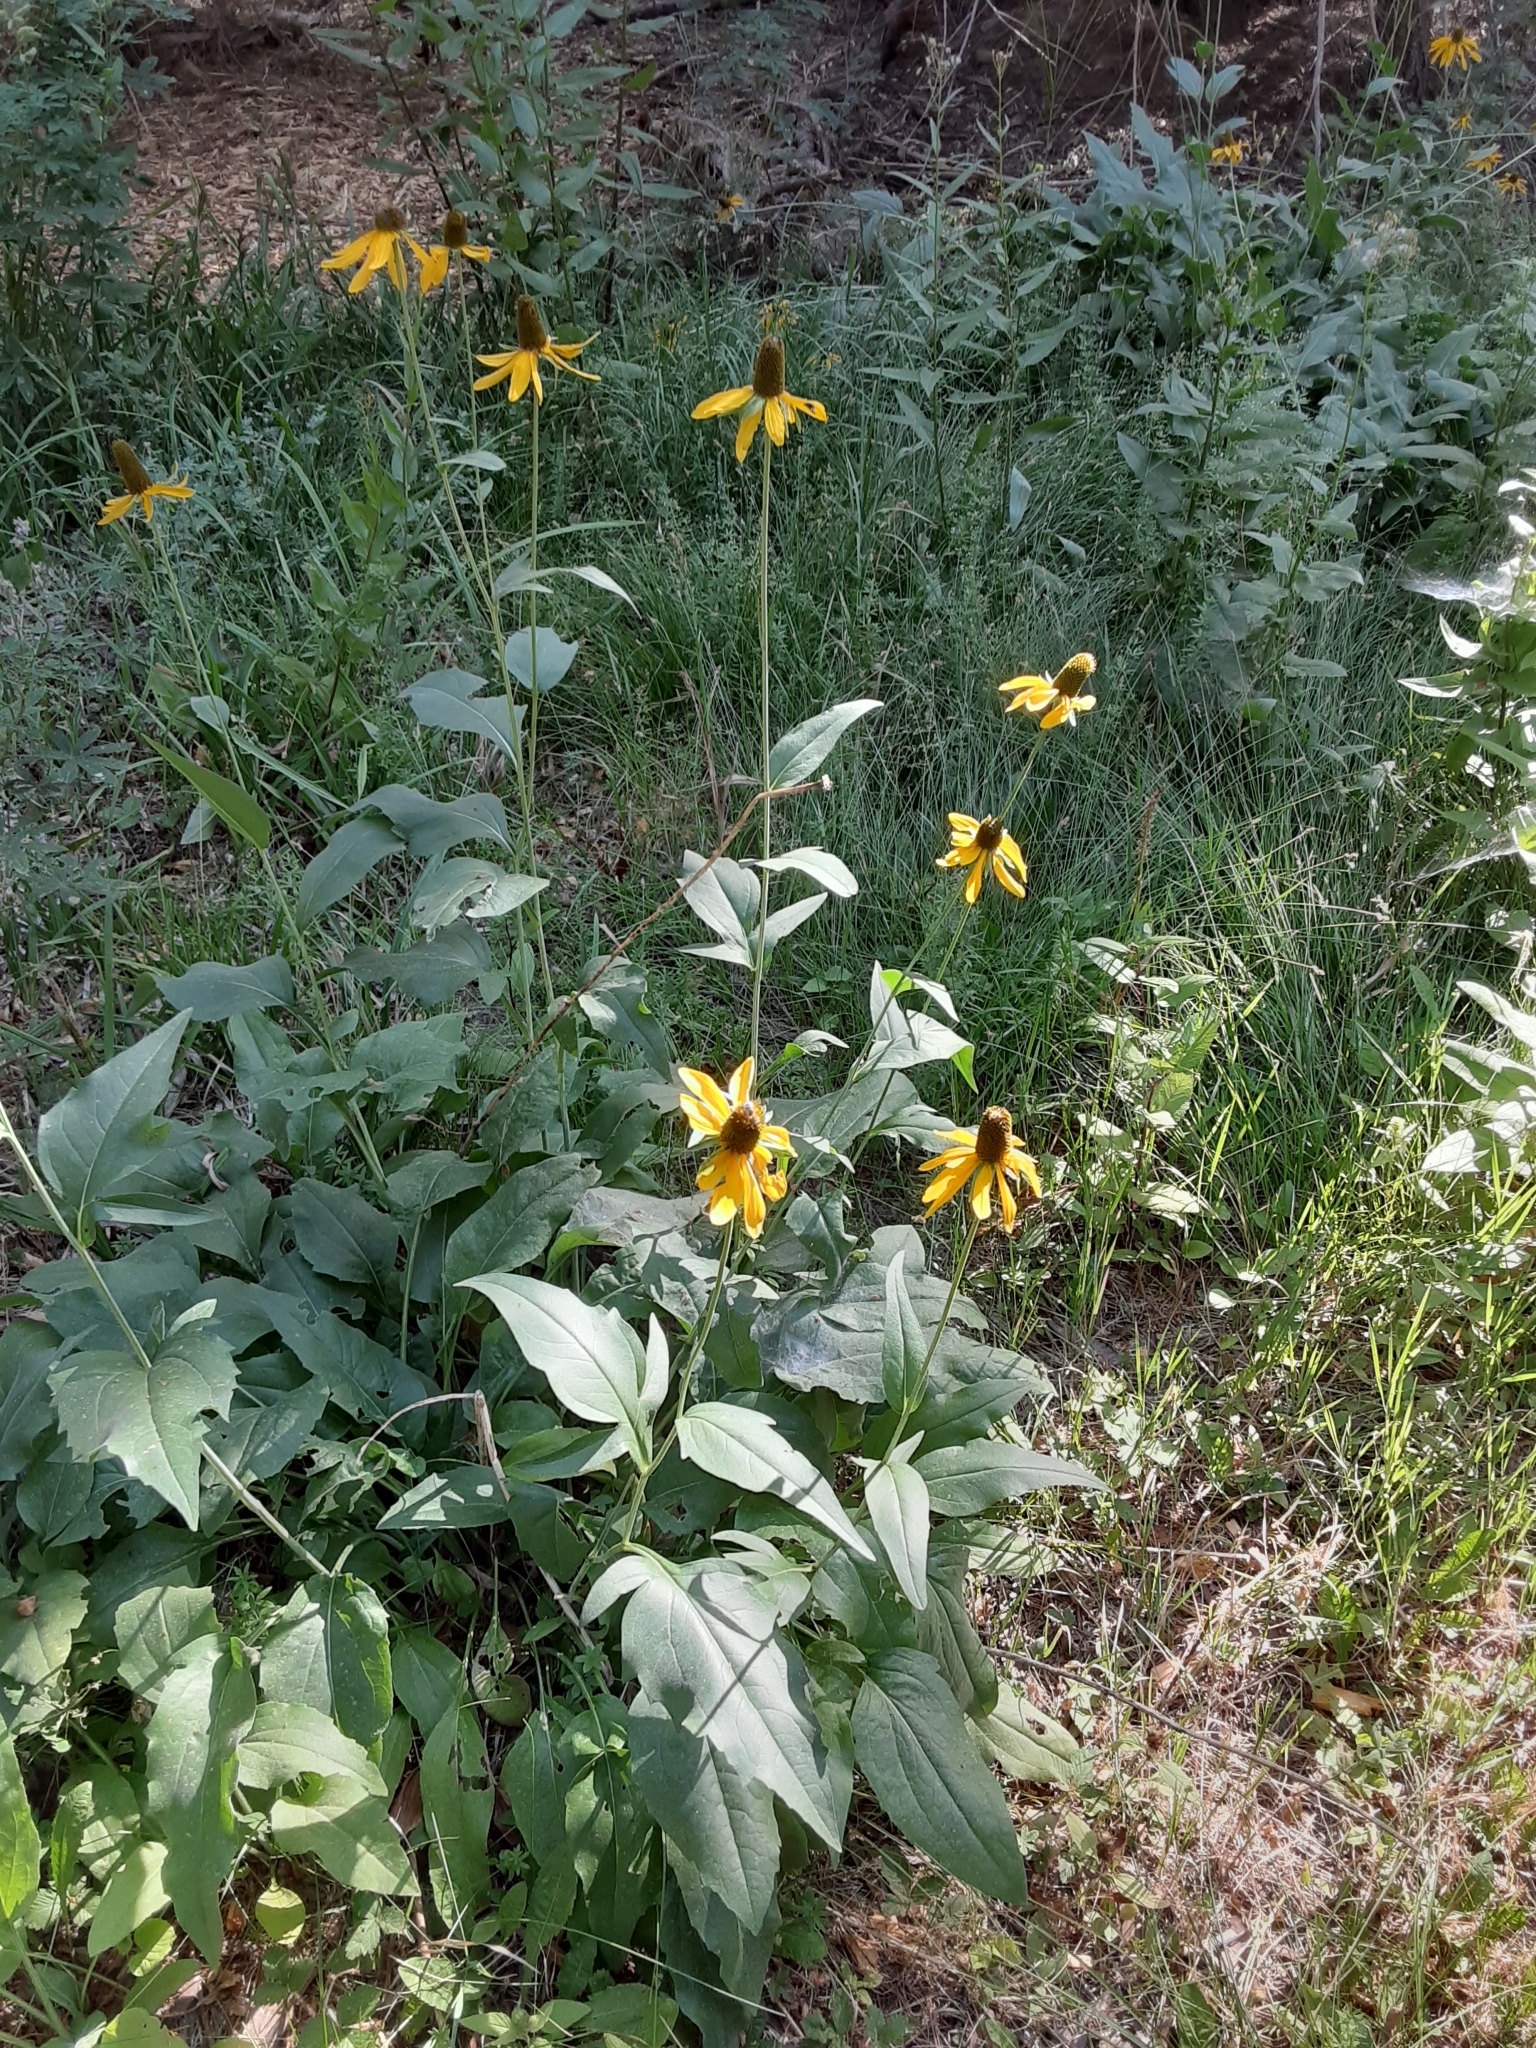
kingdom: Plantae
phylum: Tracheophyta
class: Magnoliopsida
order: Asterales
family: Asteraceae
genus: Rudbeckia
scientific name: Rudbeckia californica
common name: California coneflower
